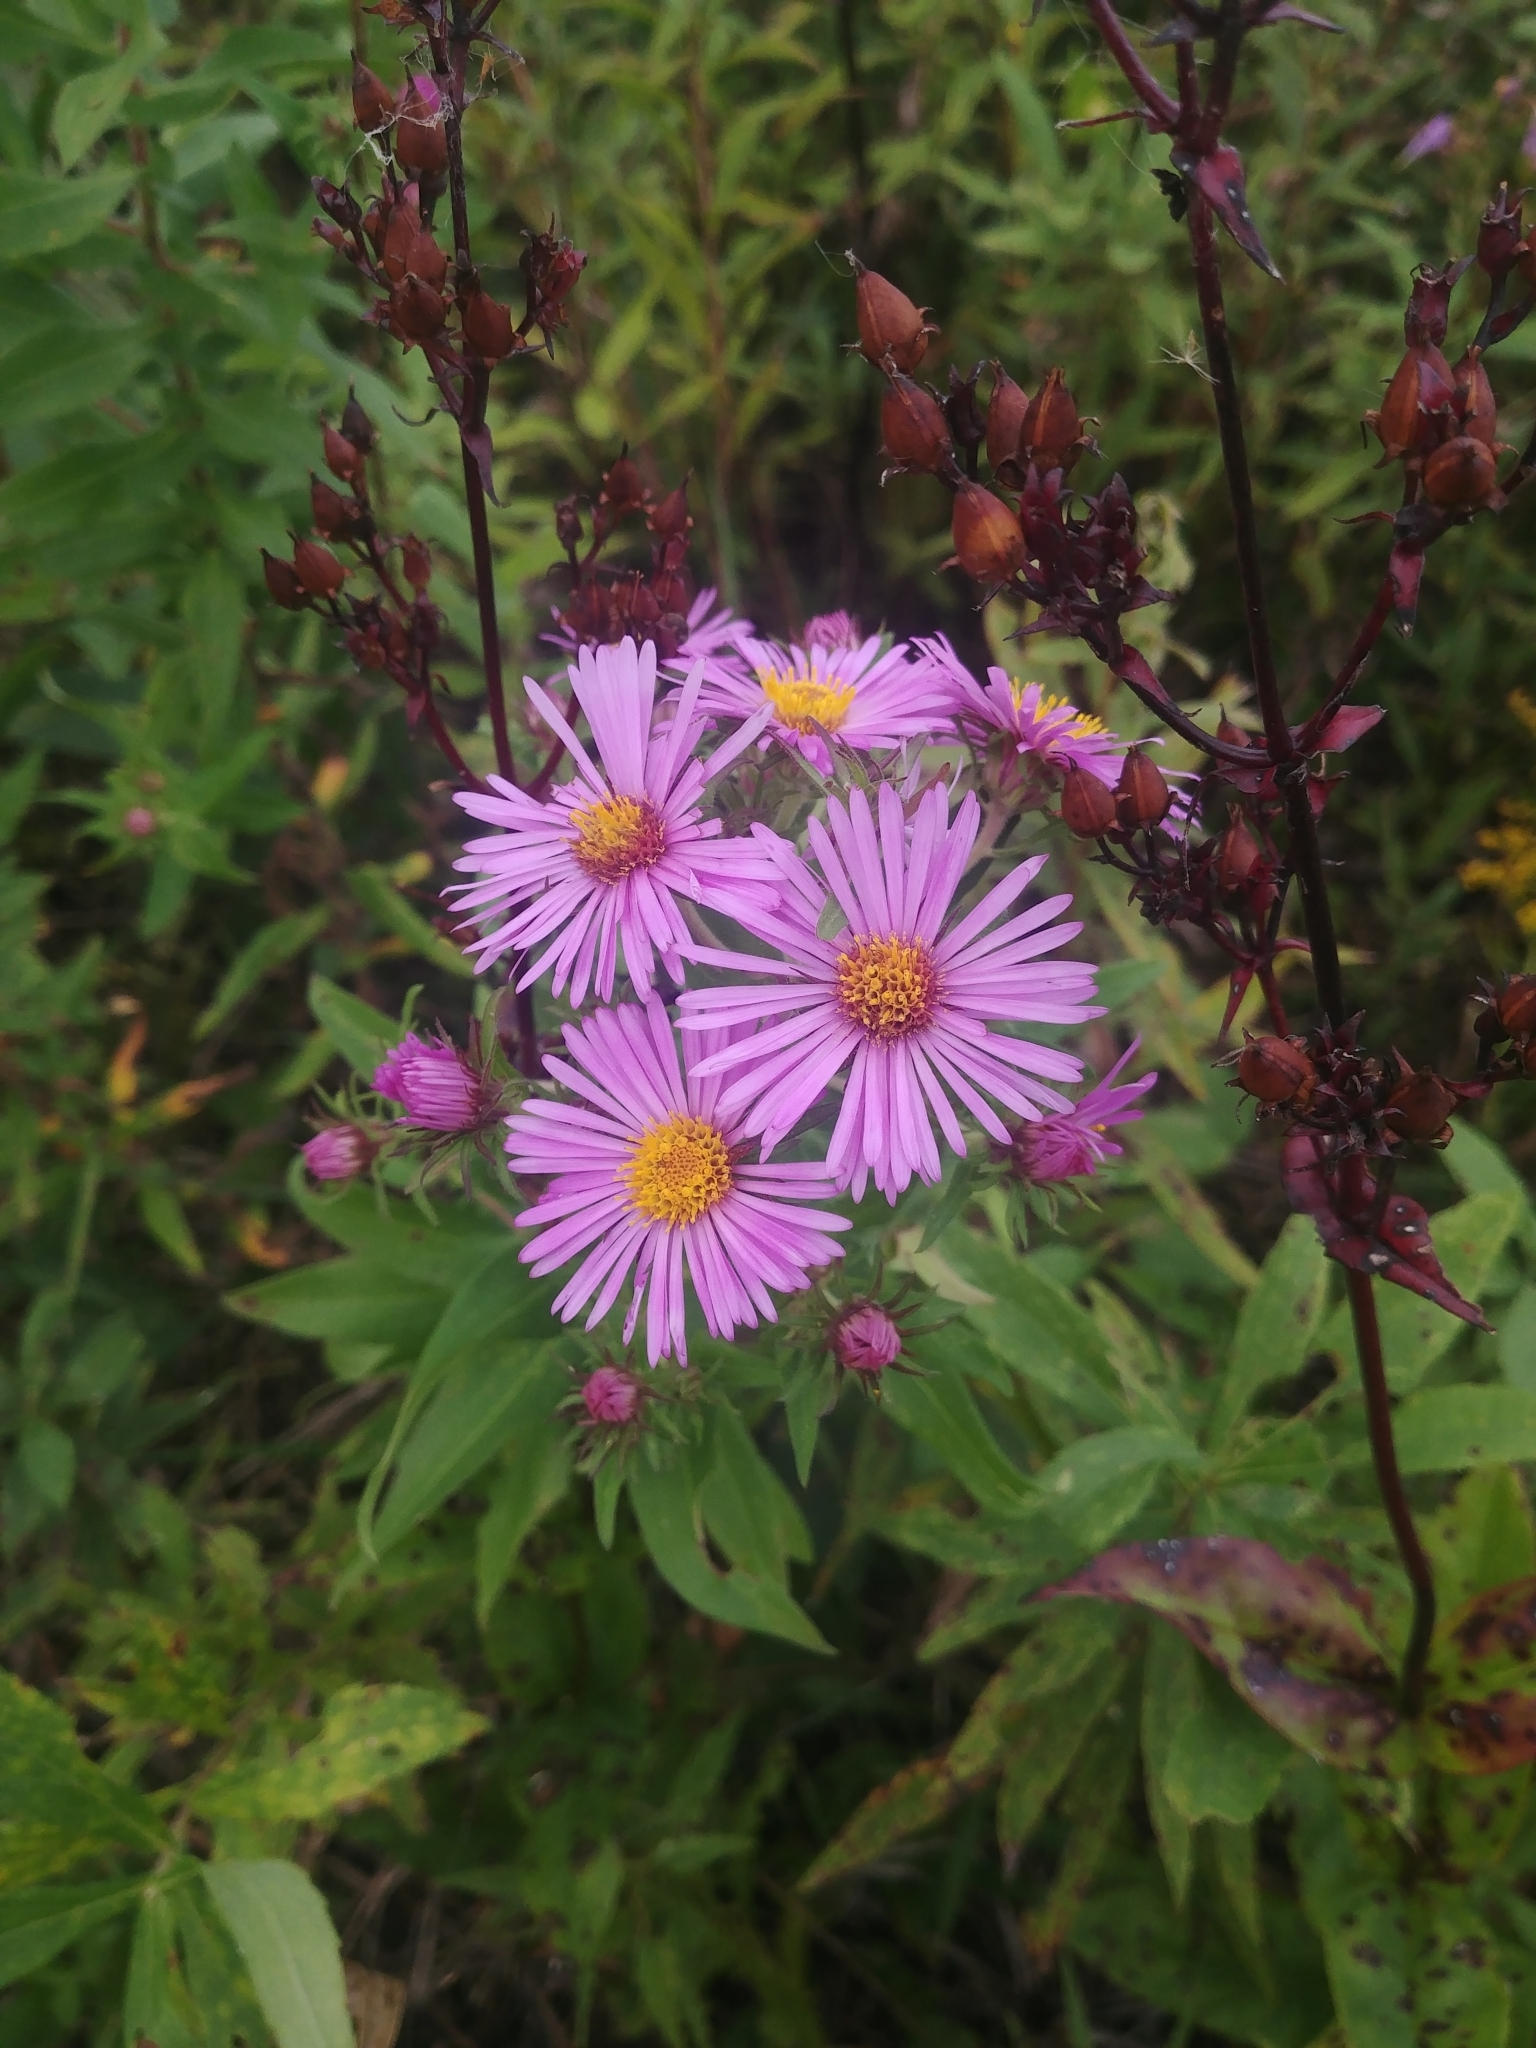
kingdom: Plantae
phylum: Tracheophyta
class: Magnoliopsida
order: Asterales
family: Asteraceae
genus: Symphyotrichum
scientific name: Symphyotrichum novae-angliae
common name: Michaelmas daisy
